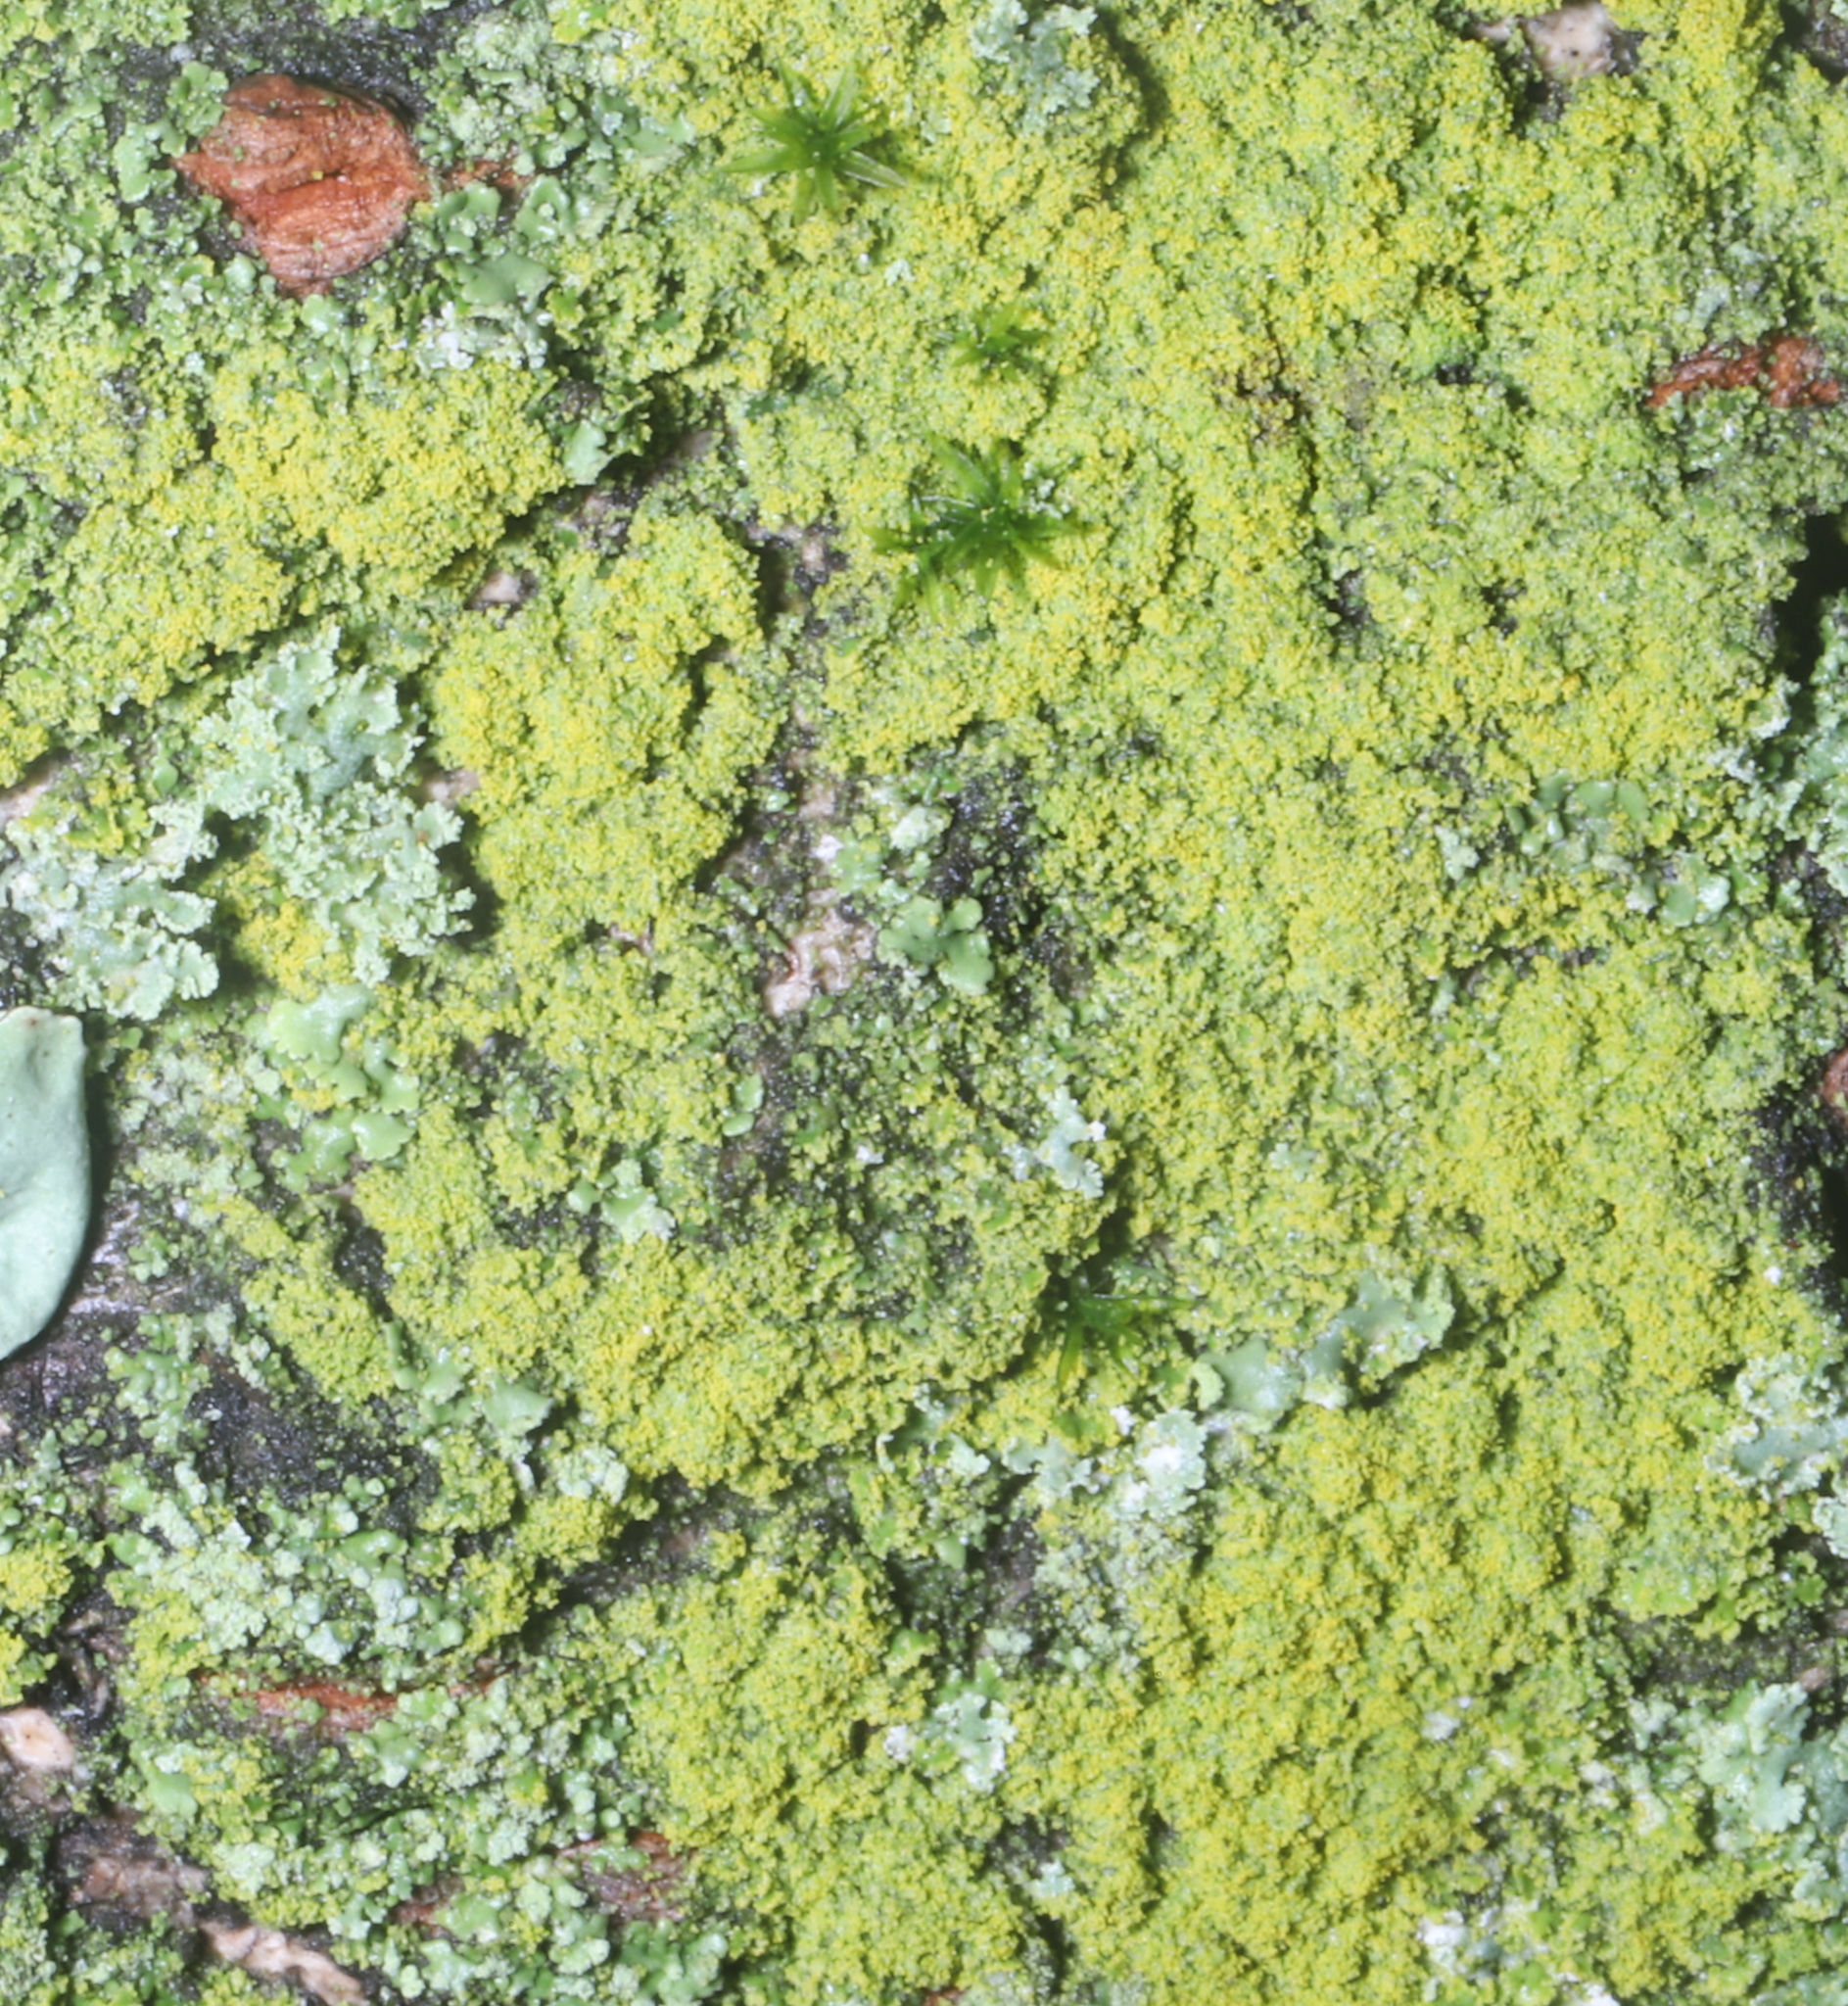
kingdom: Fungi
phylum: Ascomycota
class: Candelariomycetes
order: Candelariales
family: Candelariaceae
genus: Candelaria
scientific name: Candelaria concolor
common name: Candleflame lichen
